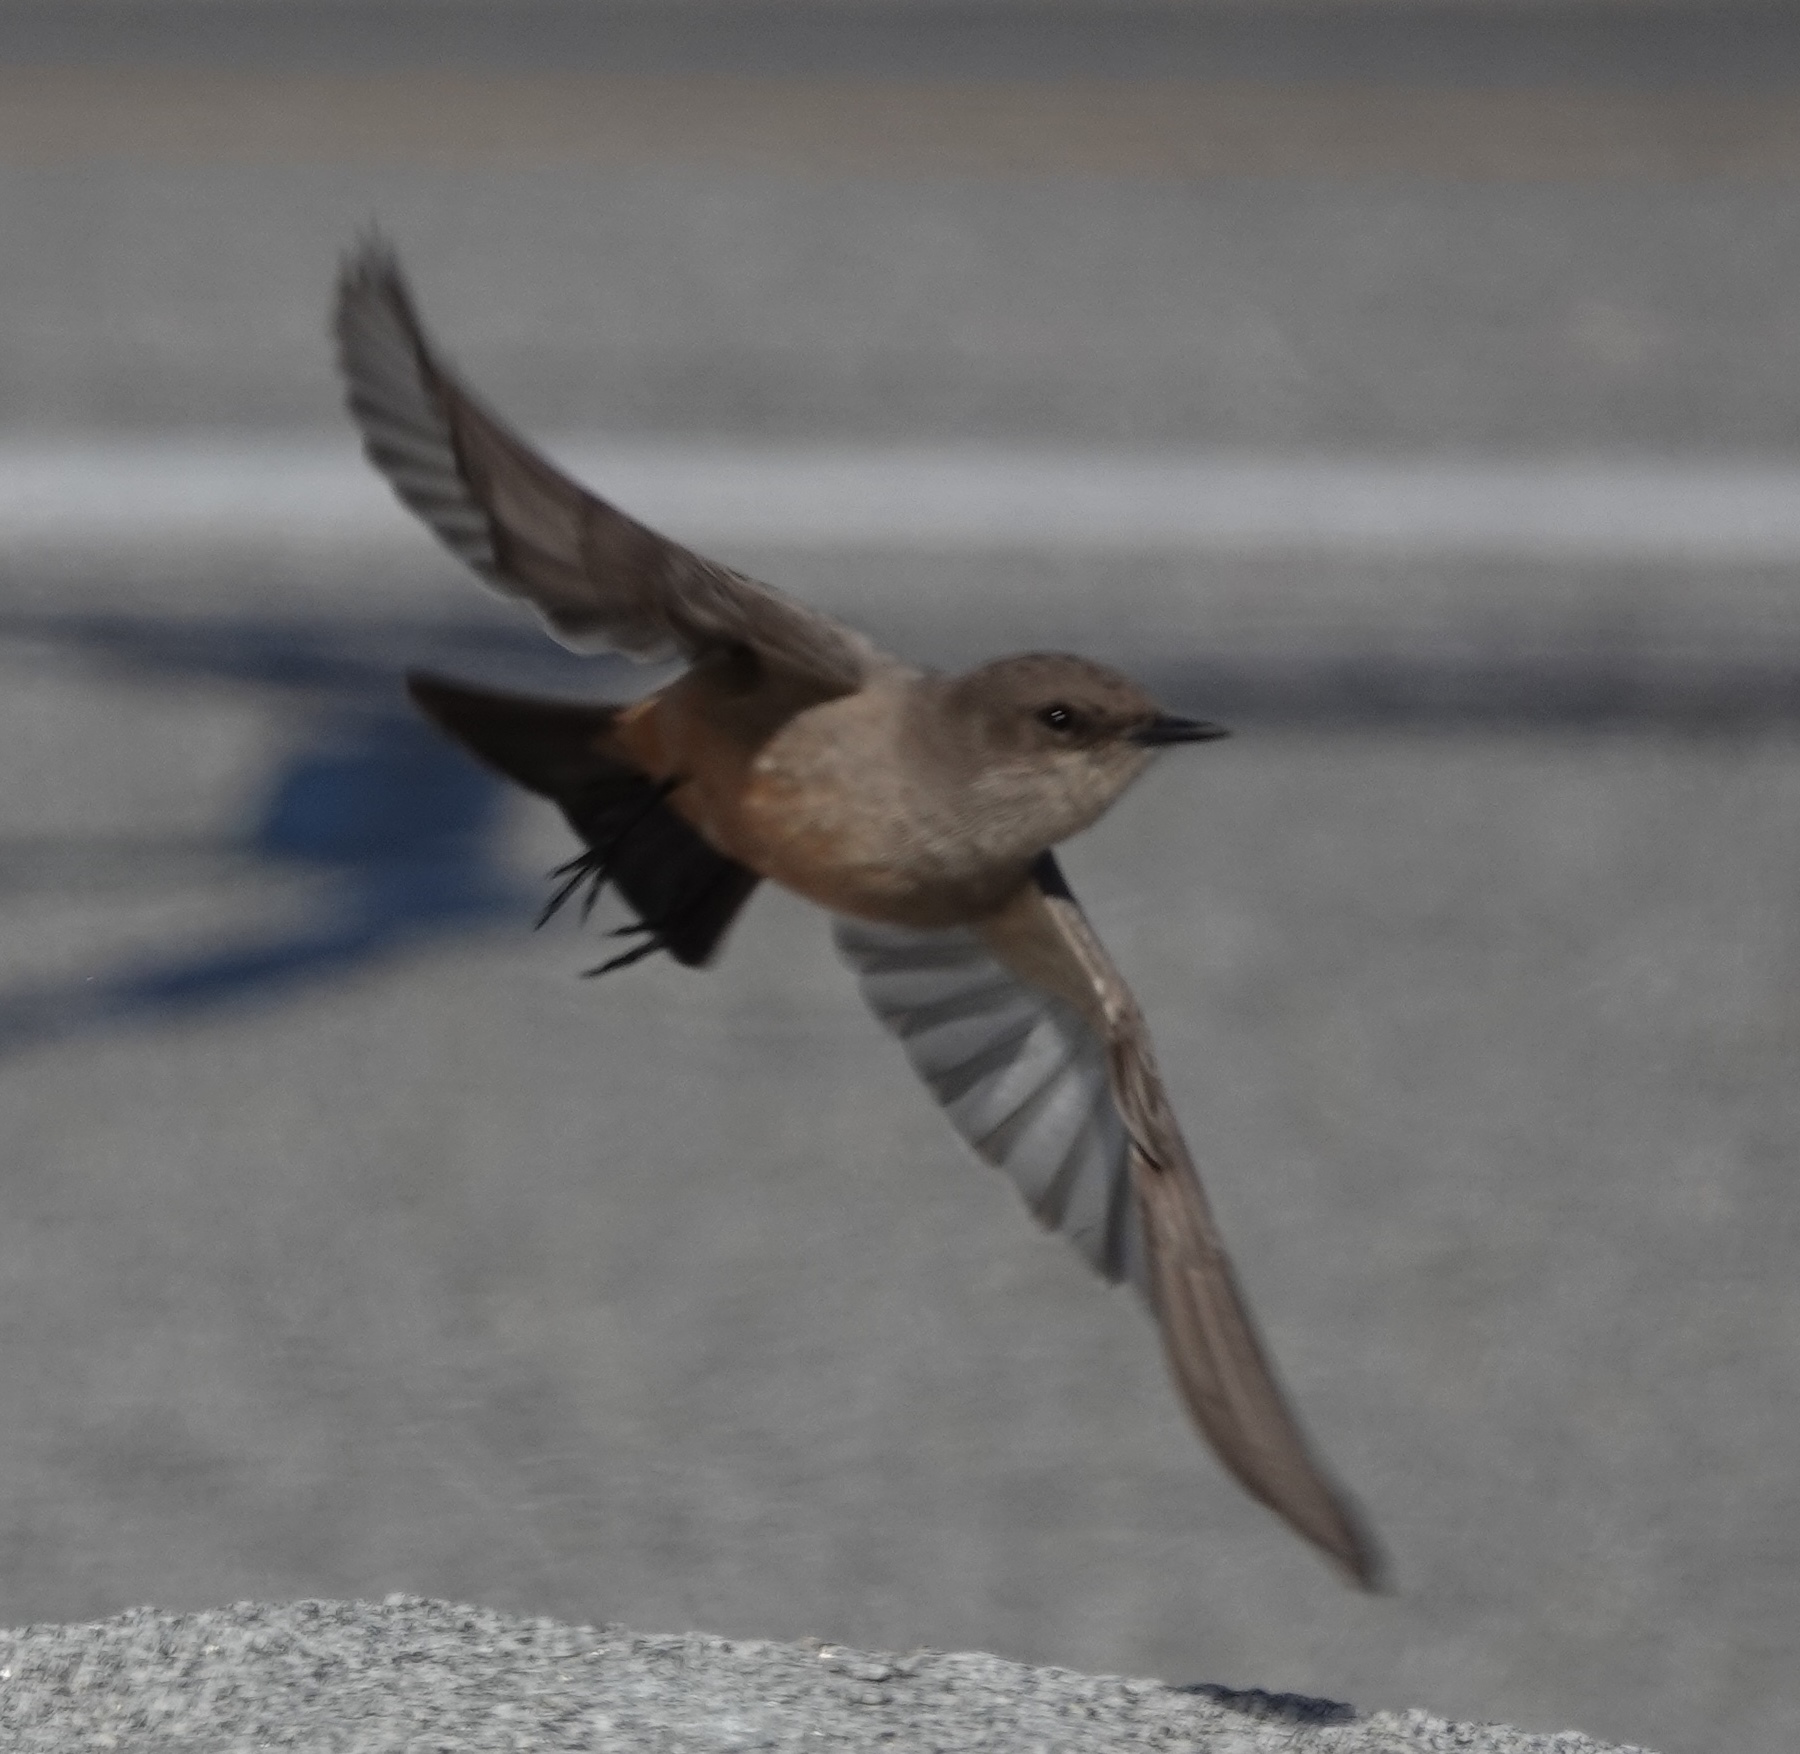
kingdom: Animalia
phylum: Chordata
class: Aves
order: Passeriformes
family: Tyrannidae
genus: Sayornis
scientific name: Sayornis saya
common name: Say's phoebe
